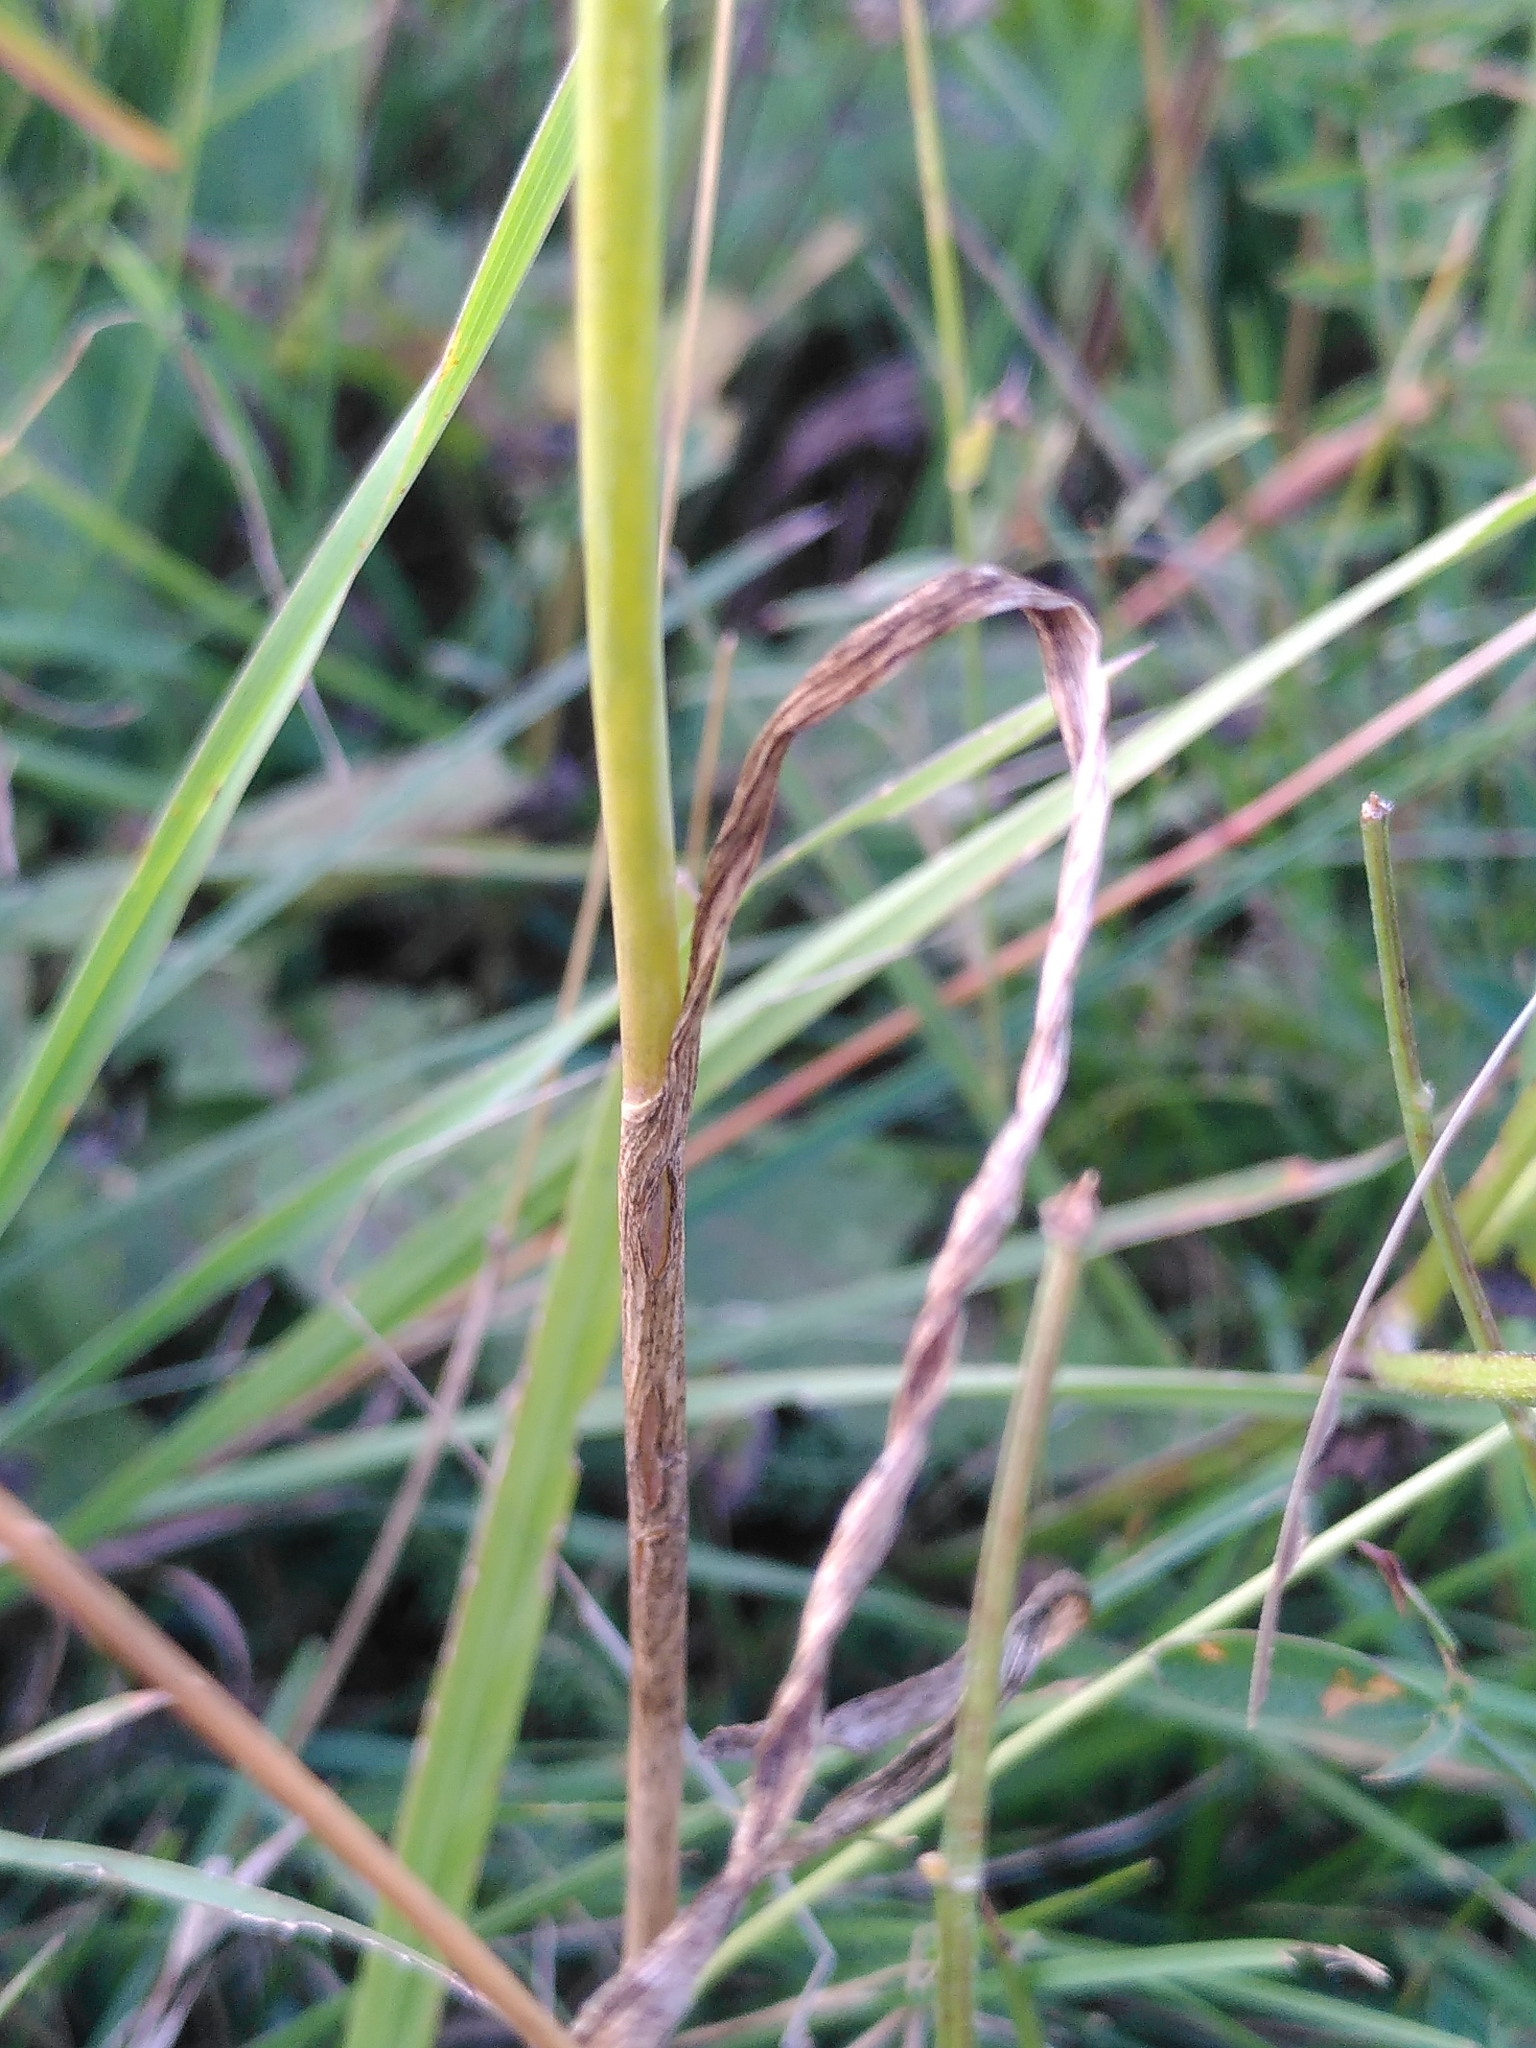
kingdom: Plantae
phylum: Tracheophyta
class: Liliopsida
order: Asparagales
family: Amaryllidaceae
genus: Allium
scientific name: Allium oleraceum
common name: Field garlic
